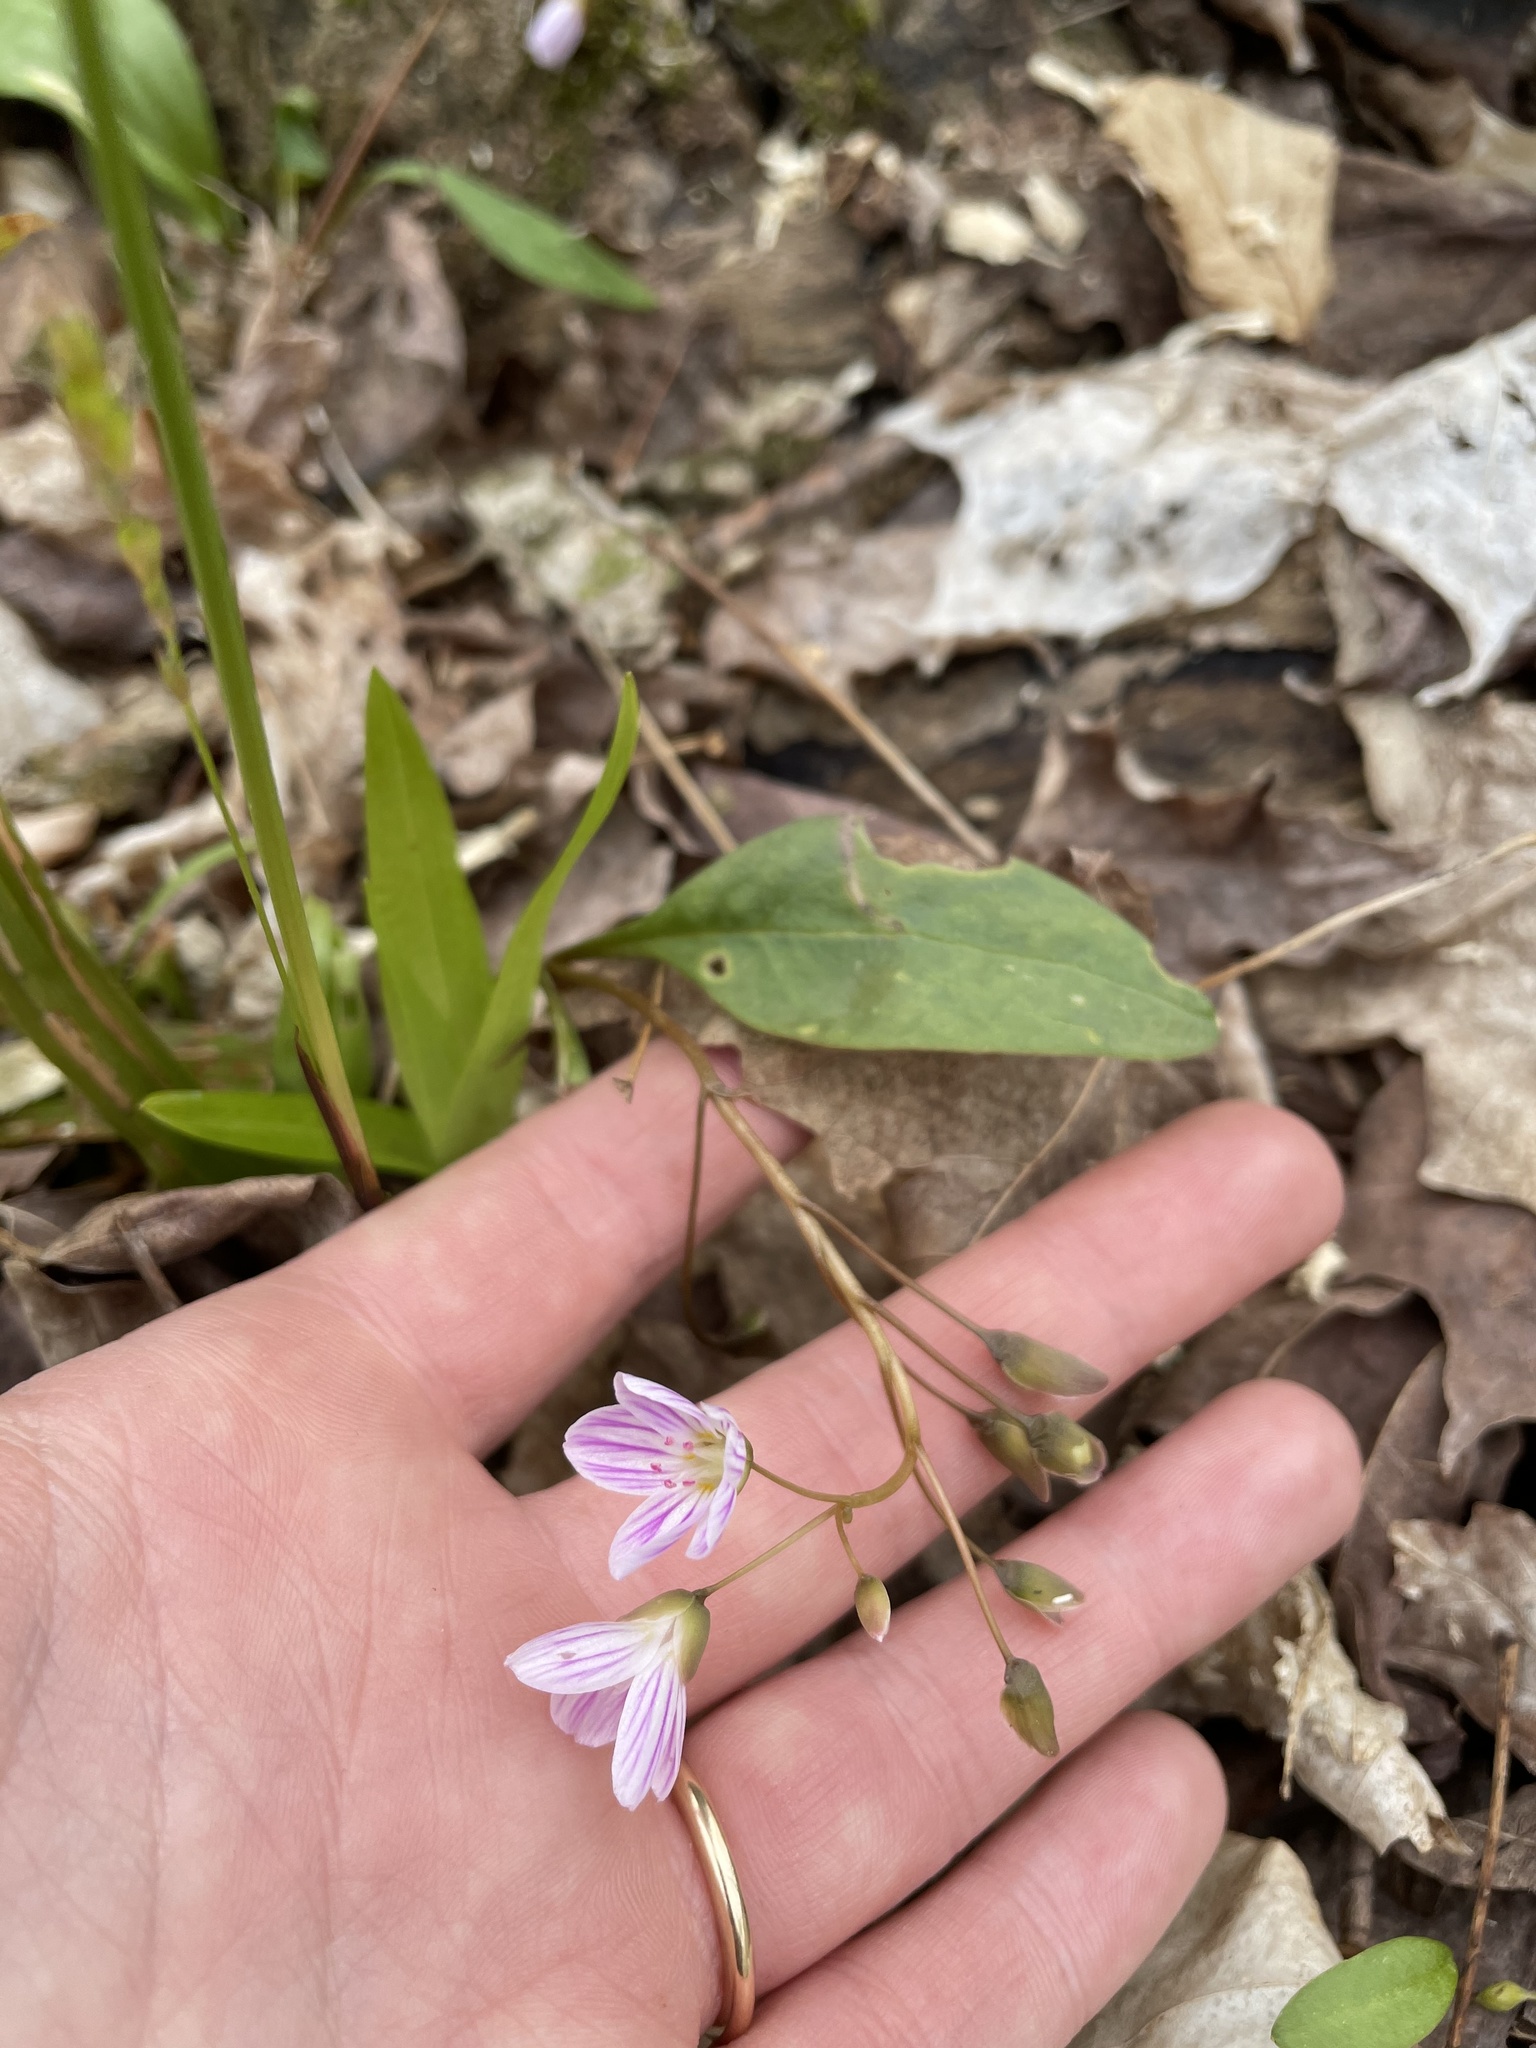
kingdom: Plantae
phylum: Tracheophyta
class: Magnoliopsida
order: Caryophyllales
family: Montiaceae
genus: Claytonia
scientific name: Claytonia caroliniana
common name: Carolina spring beauty
